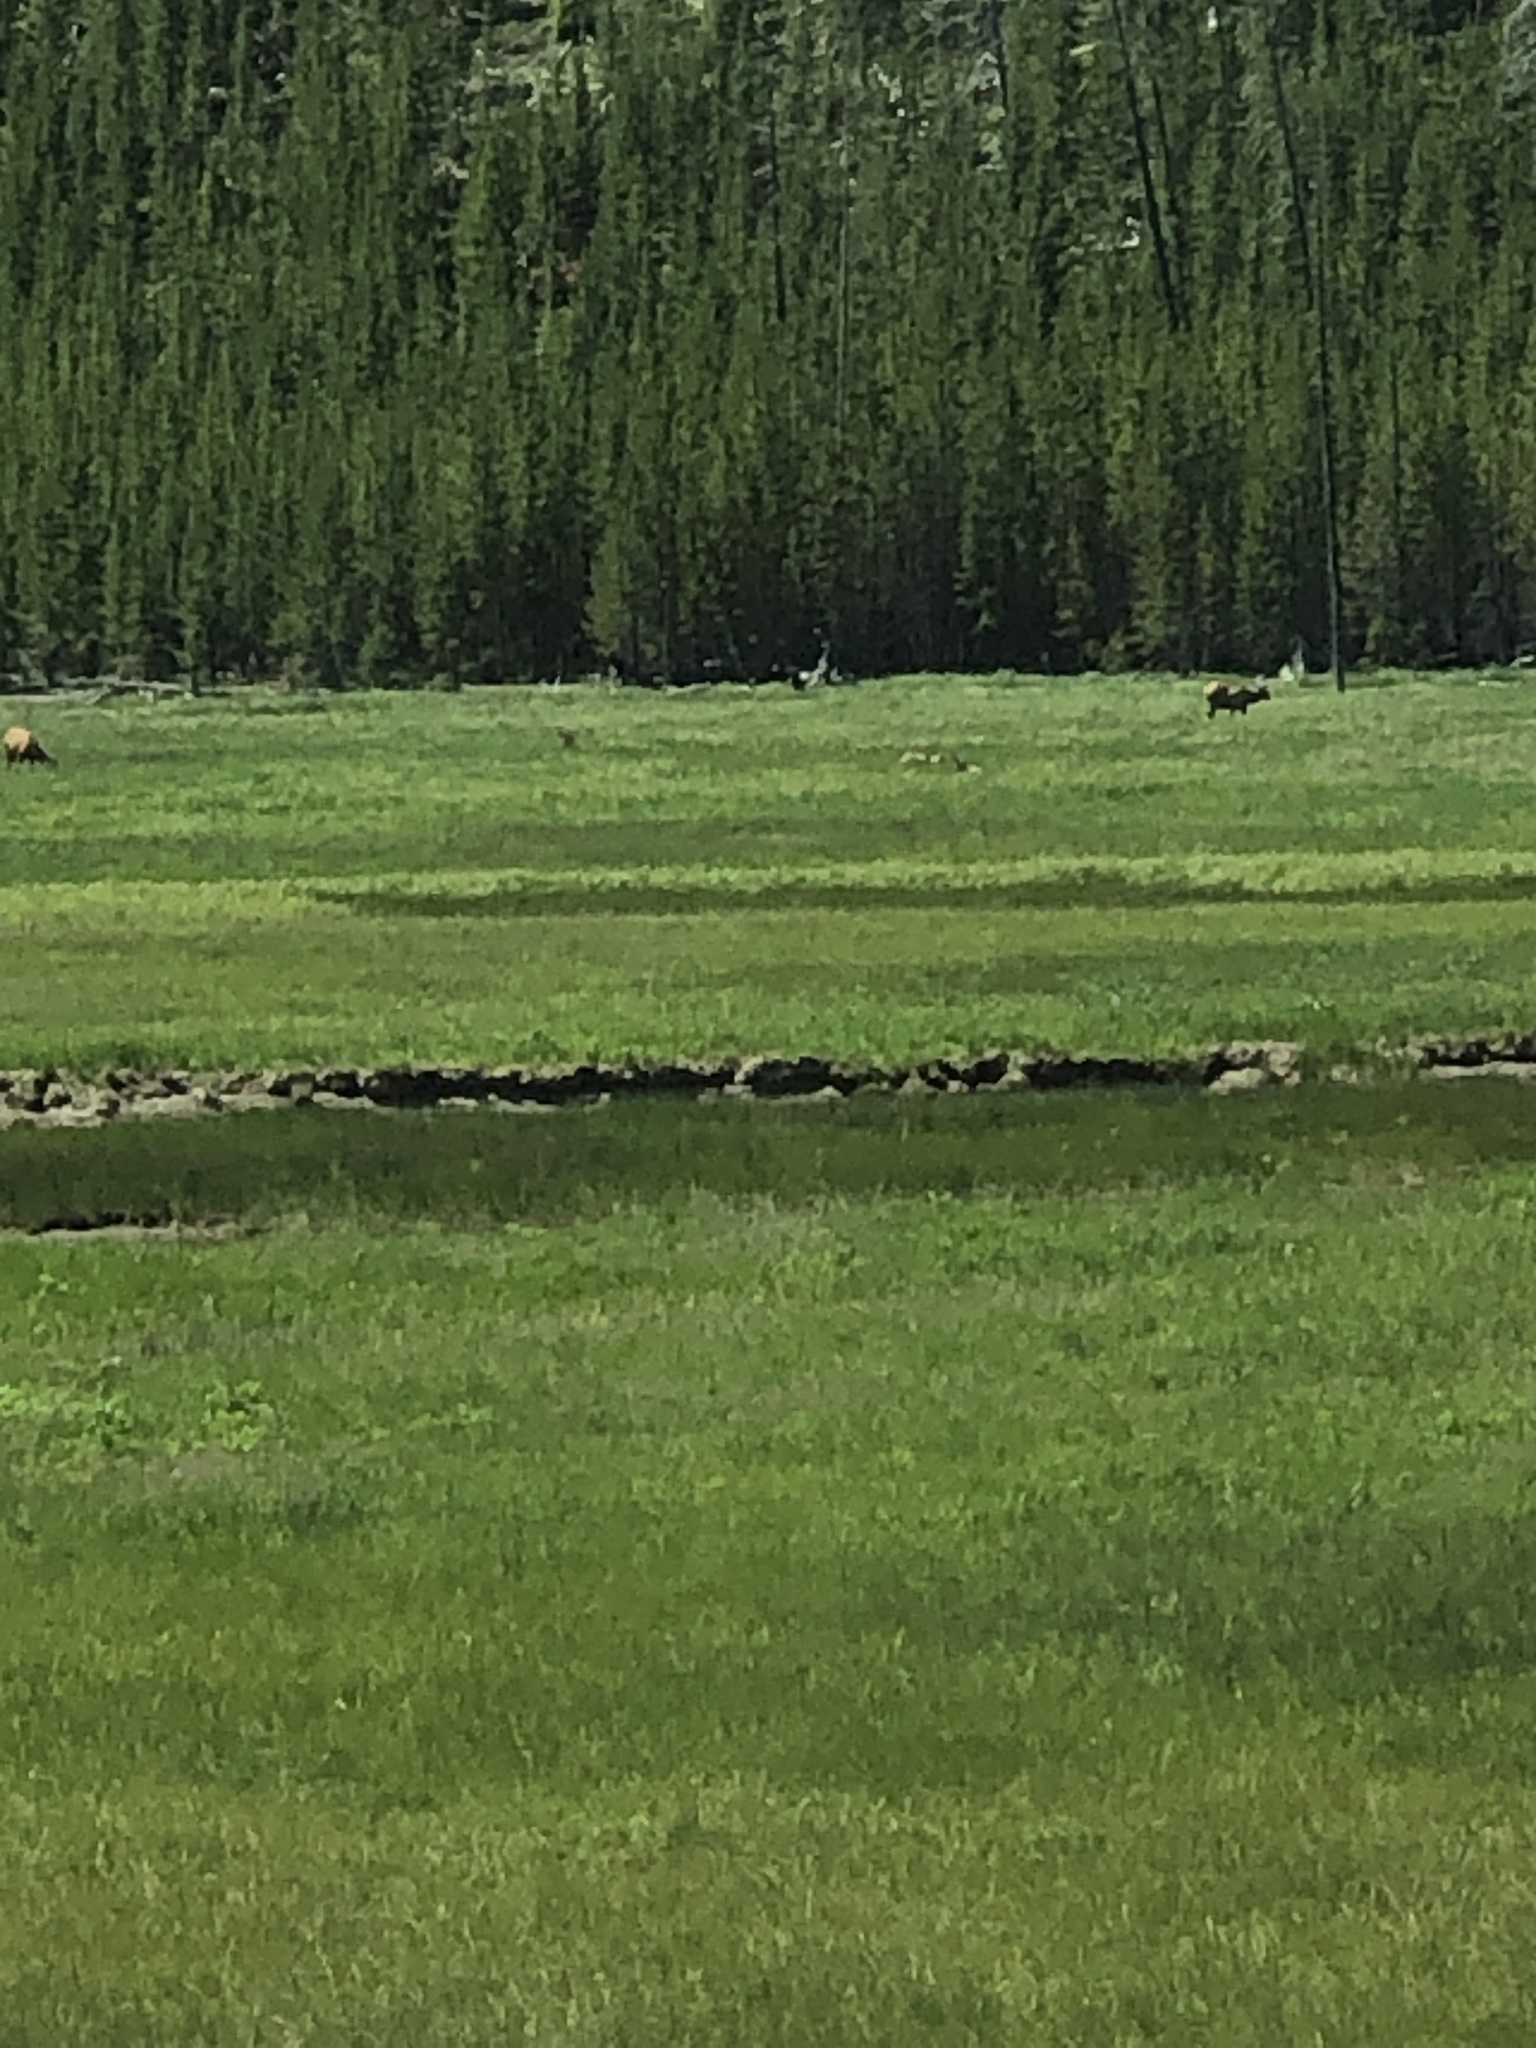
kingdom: Animalia
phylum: Chordata
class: Mammalia
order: Artiodactyla
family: Cervidae
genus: Cervus
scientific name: Cervus elaphus
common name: Red deer
